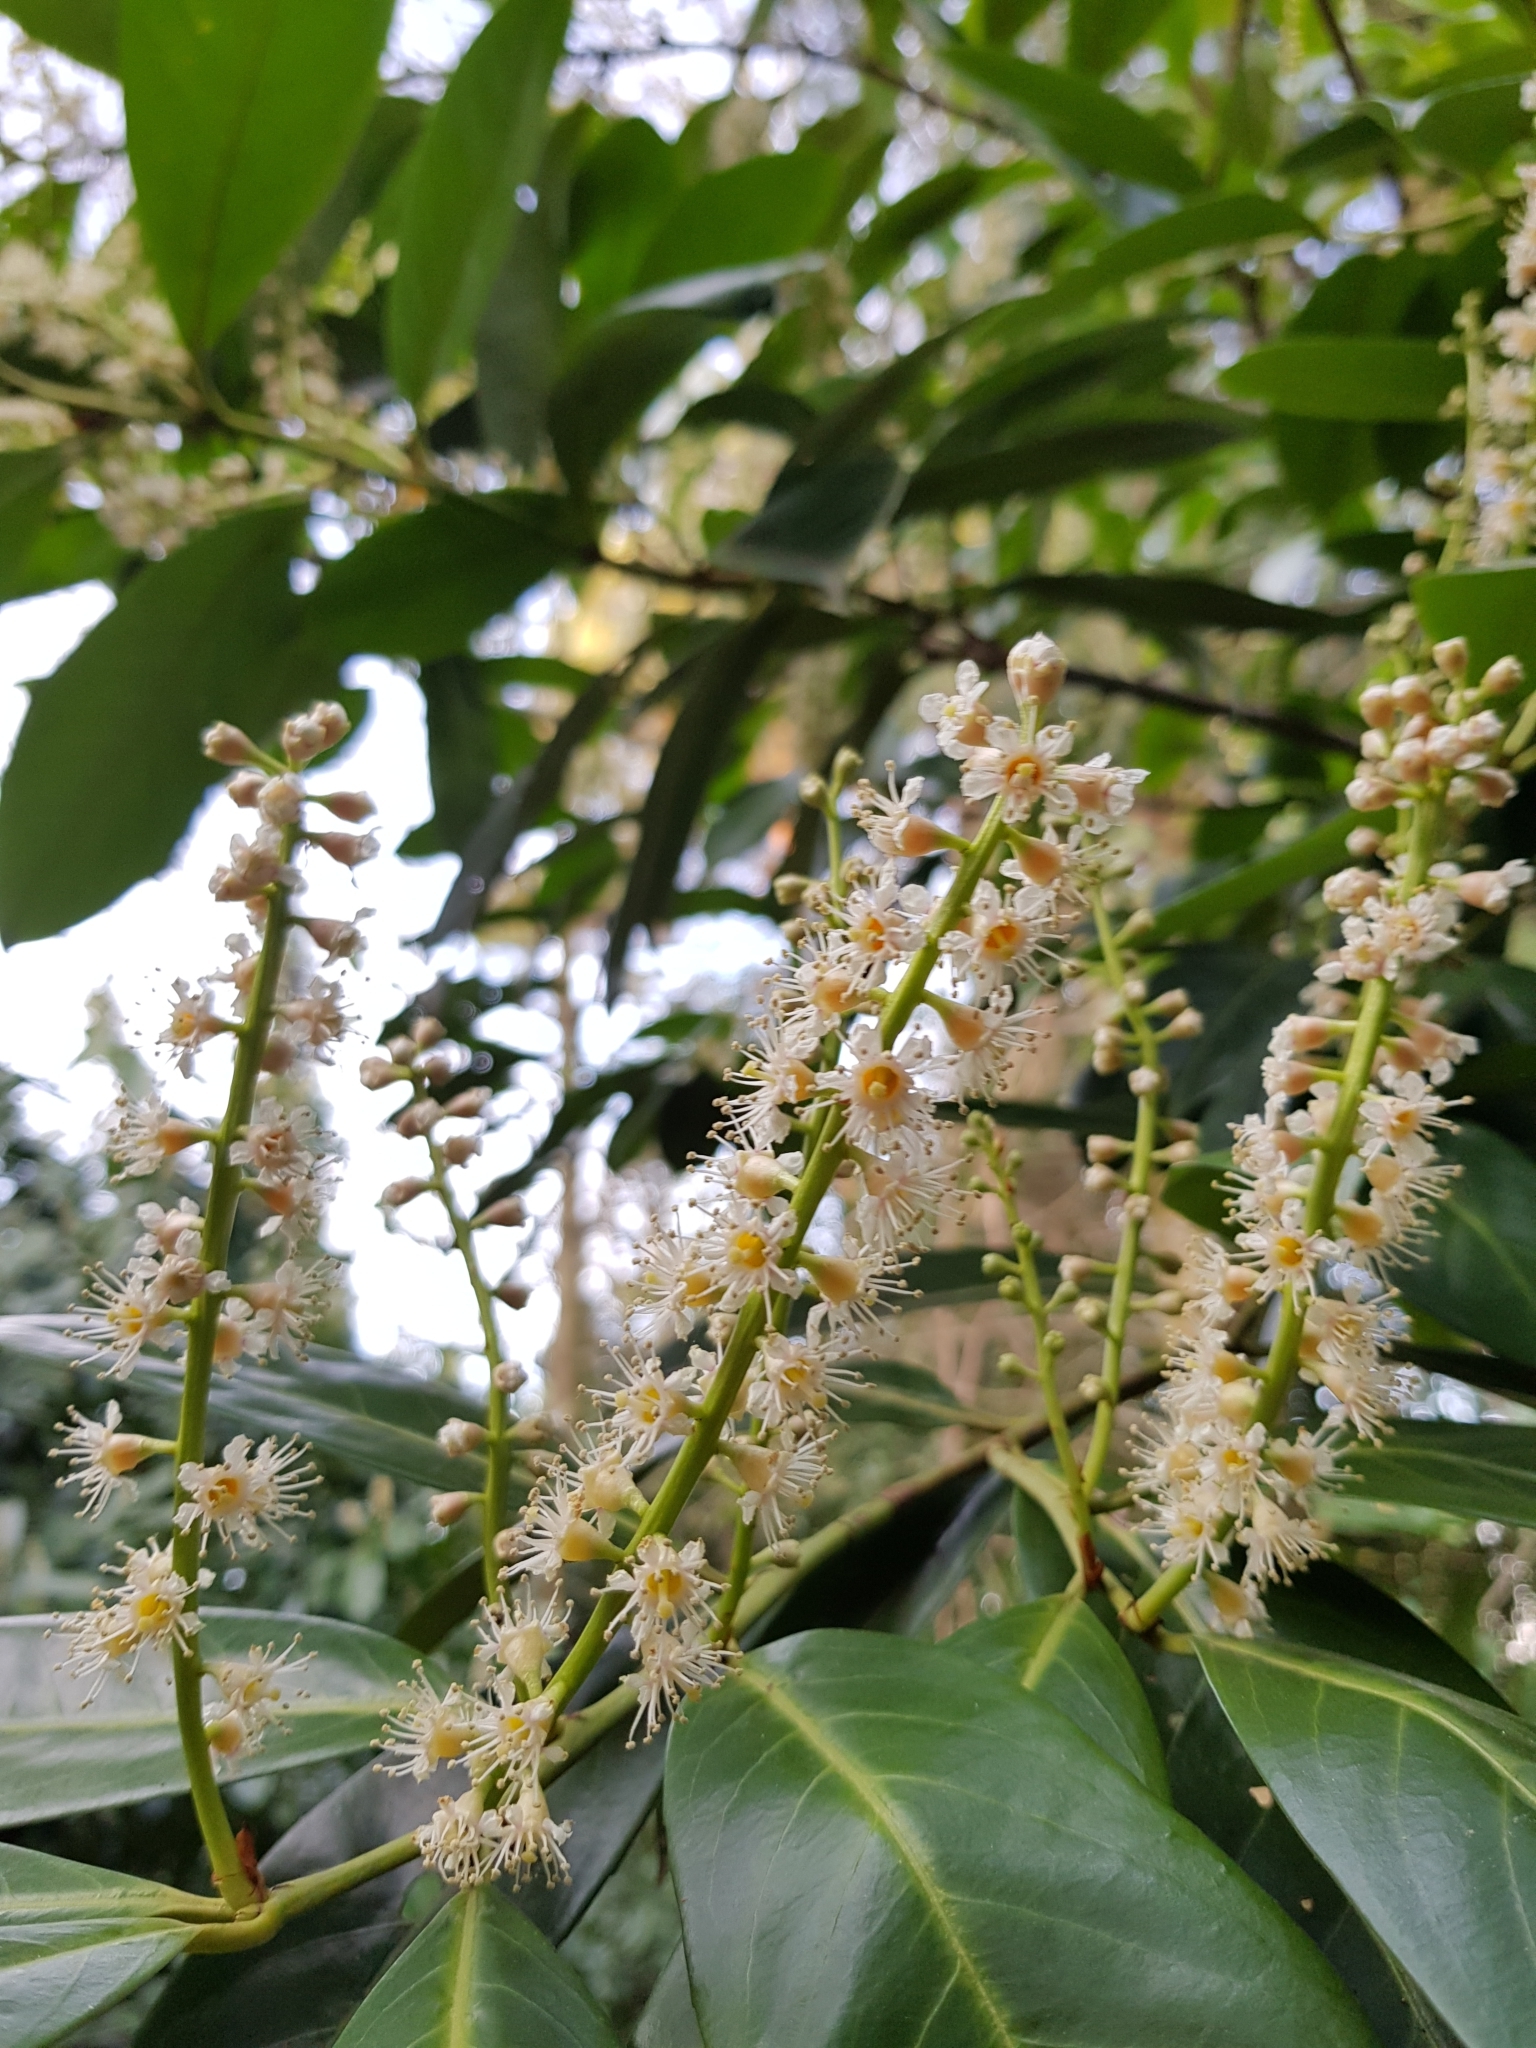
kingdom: Plantae
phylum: Tracheophyta
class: Magnoliopsida
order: Rosales
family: Rosaceae
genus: Prunus
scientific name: Prunus laurocerasus
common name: Cherry laurel
